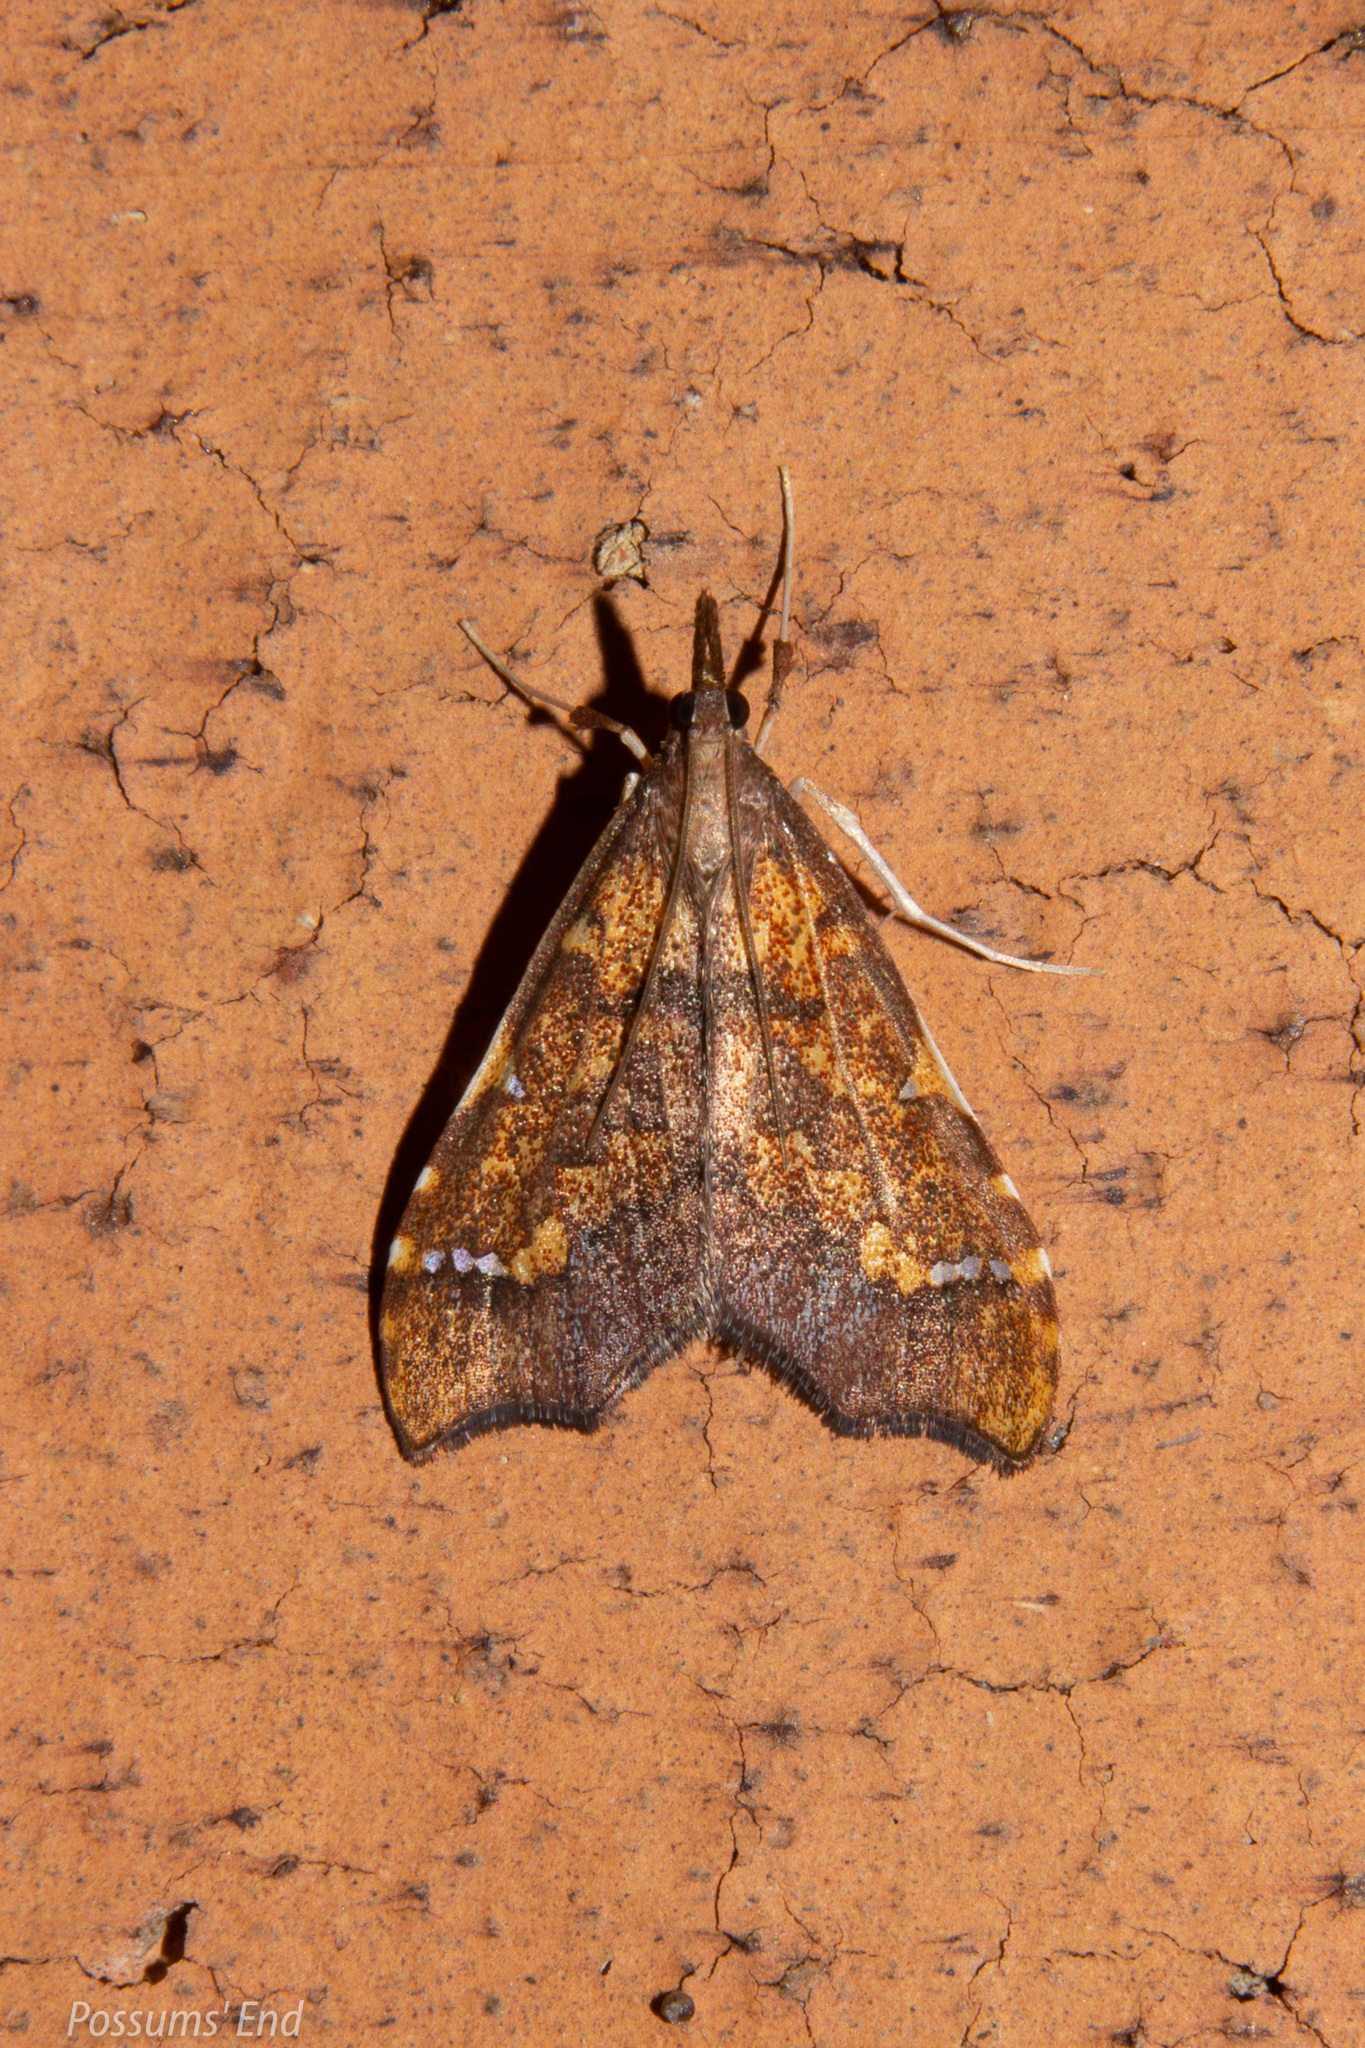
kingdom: Animalia
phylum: Arthropoda
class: Insecta
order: Lepidoptera
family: Crambidae
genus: Deana
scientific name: Deana hybreasalis
